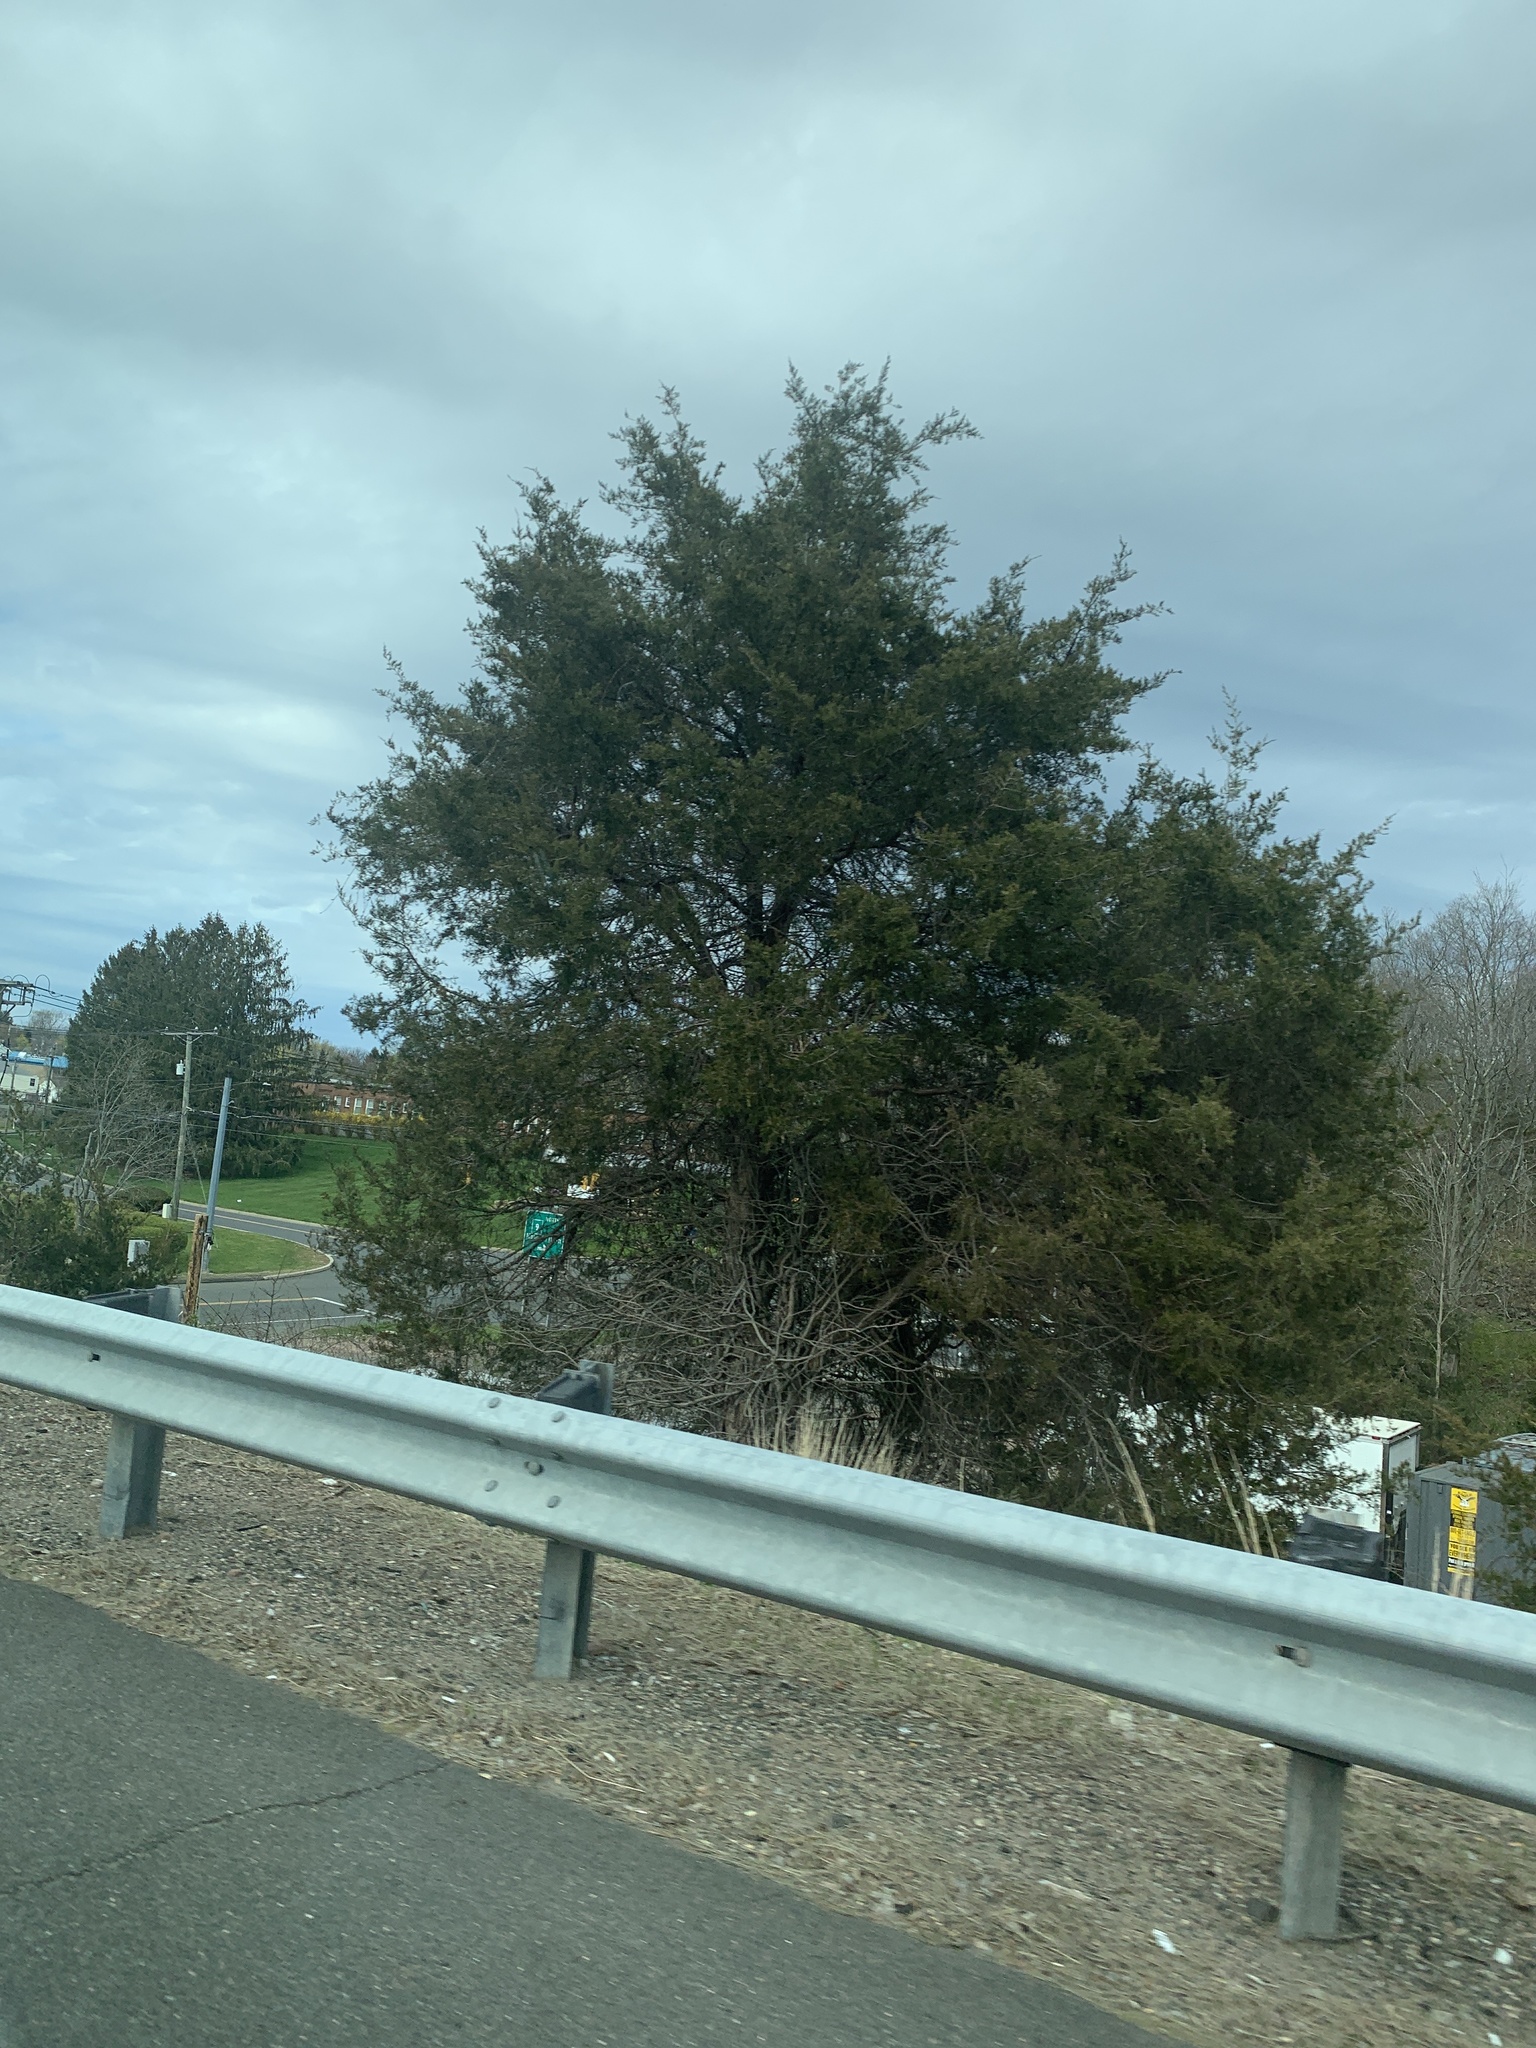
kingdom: Plantae
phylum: Tracheophyta
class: Pinopsida
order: Pinales
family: Cupressaceae
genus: Juniperus
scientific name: Juniperus virginiana
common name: Red juniper
